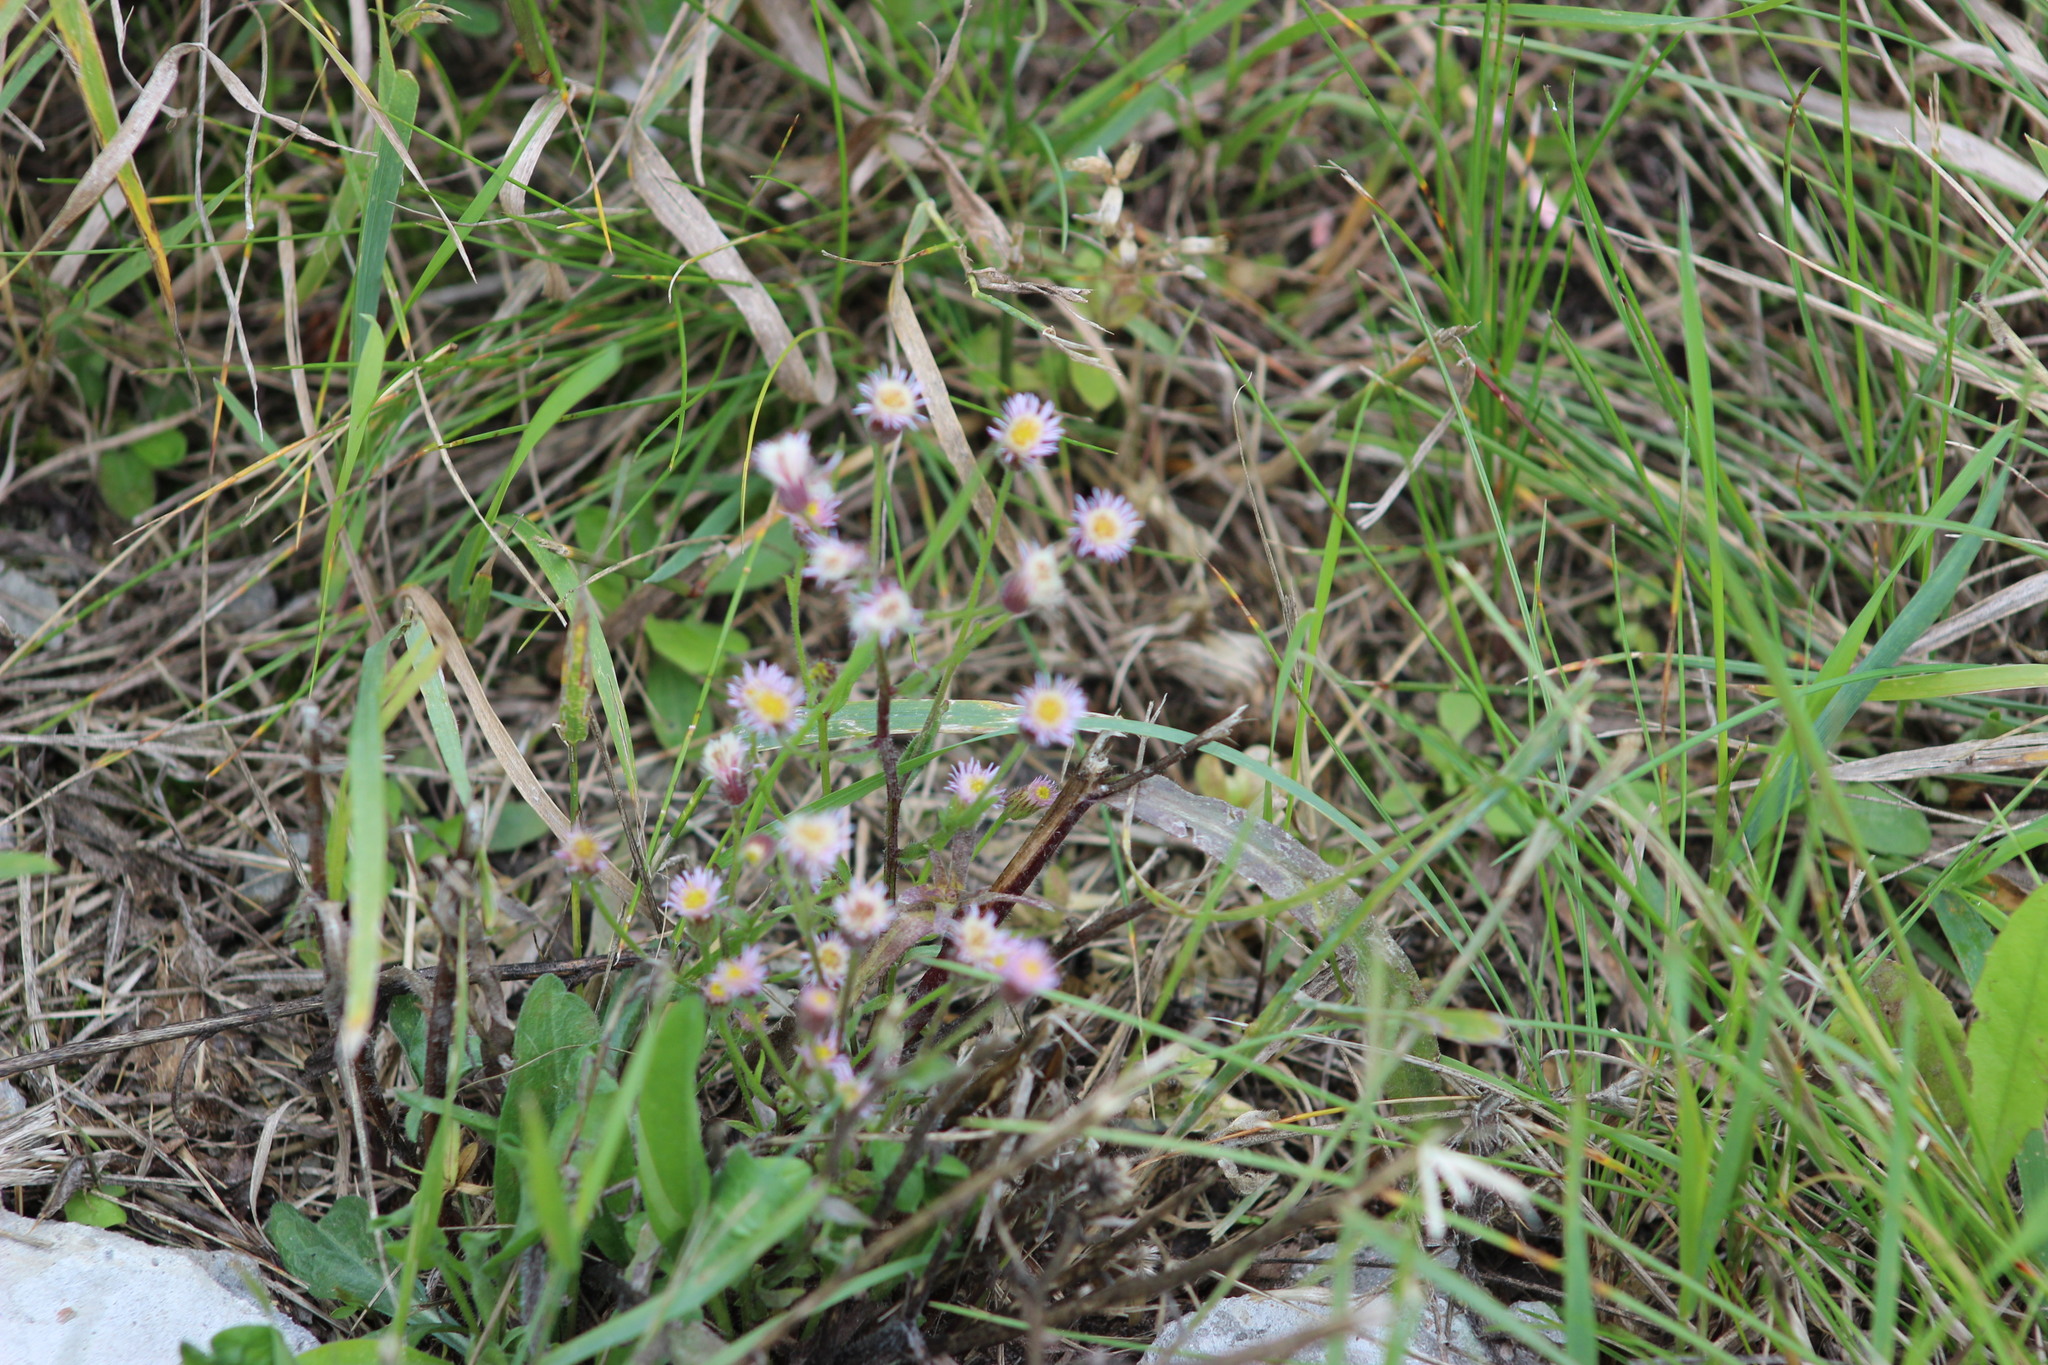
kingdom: Plantae
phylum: Tracheophyta
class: Magnoliopsida
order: Asterales
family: Asteraceae
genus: Erigeron
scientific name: Erigeron acris
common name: Blue fleabane
